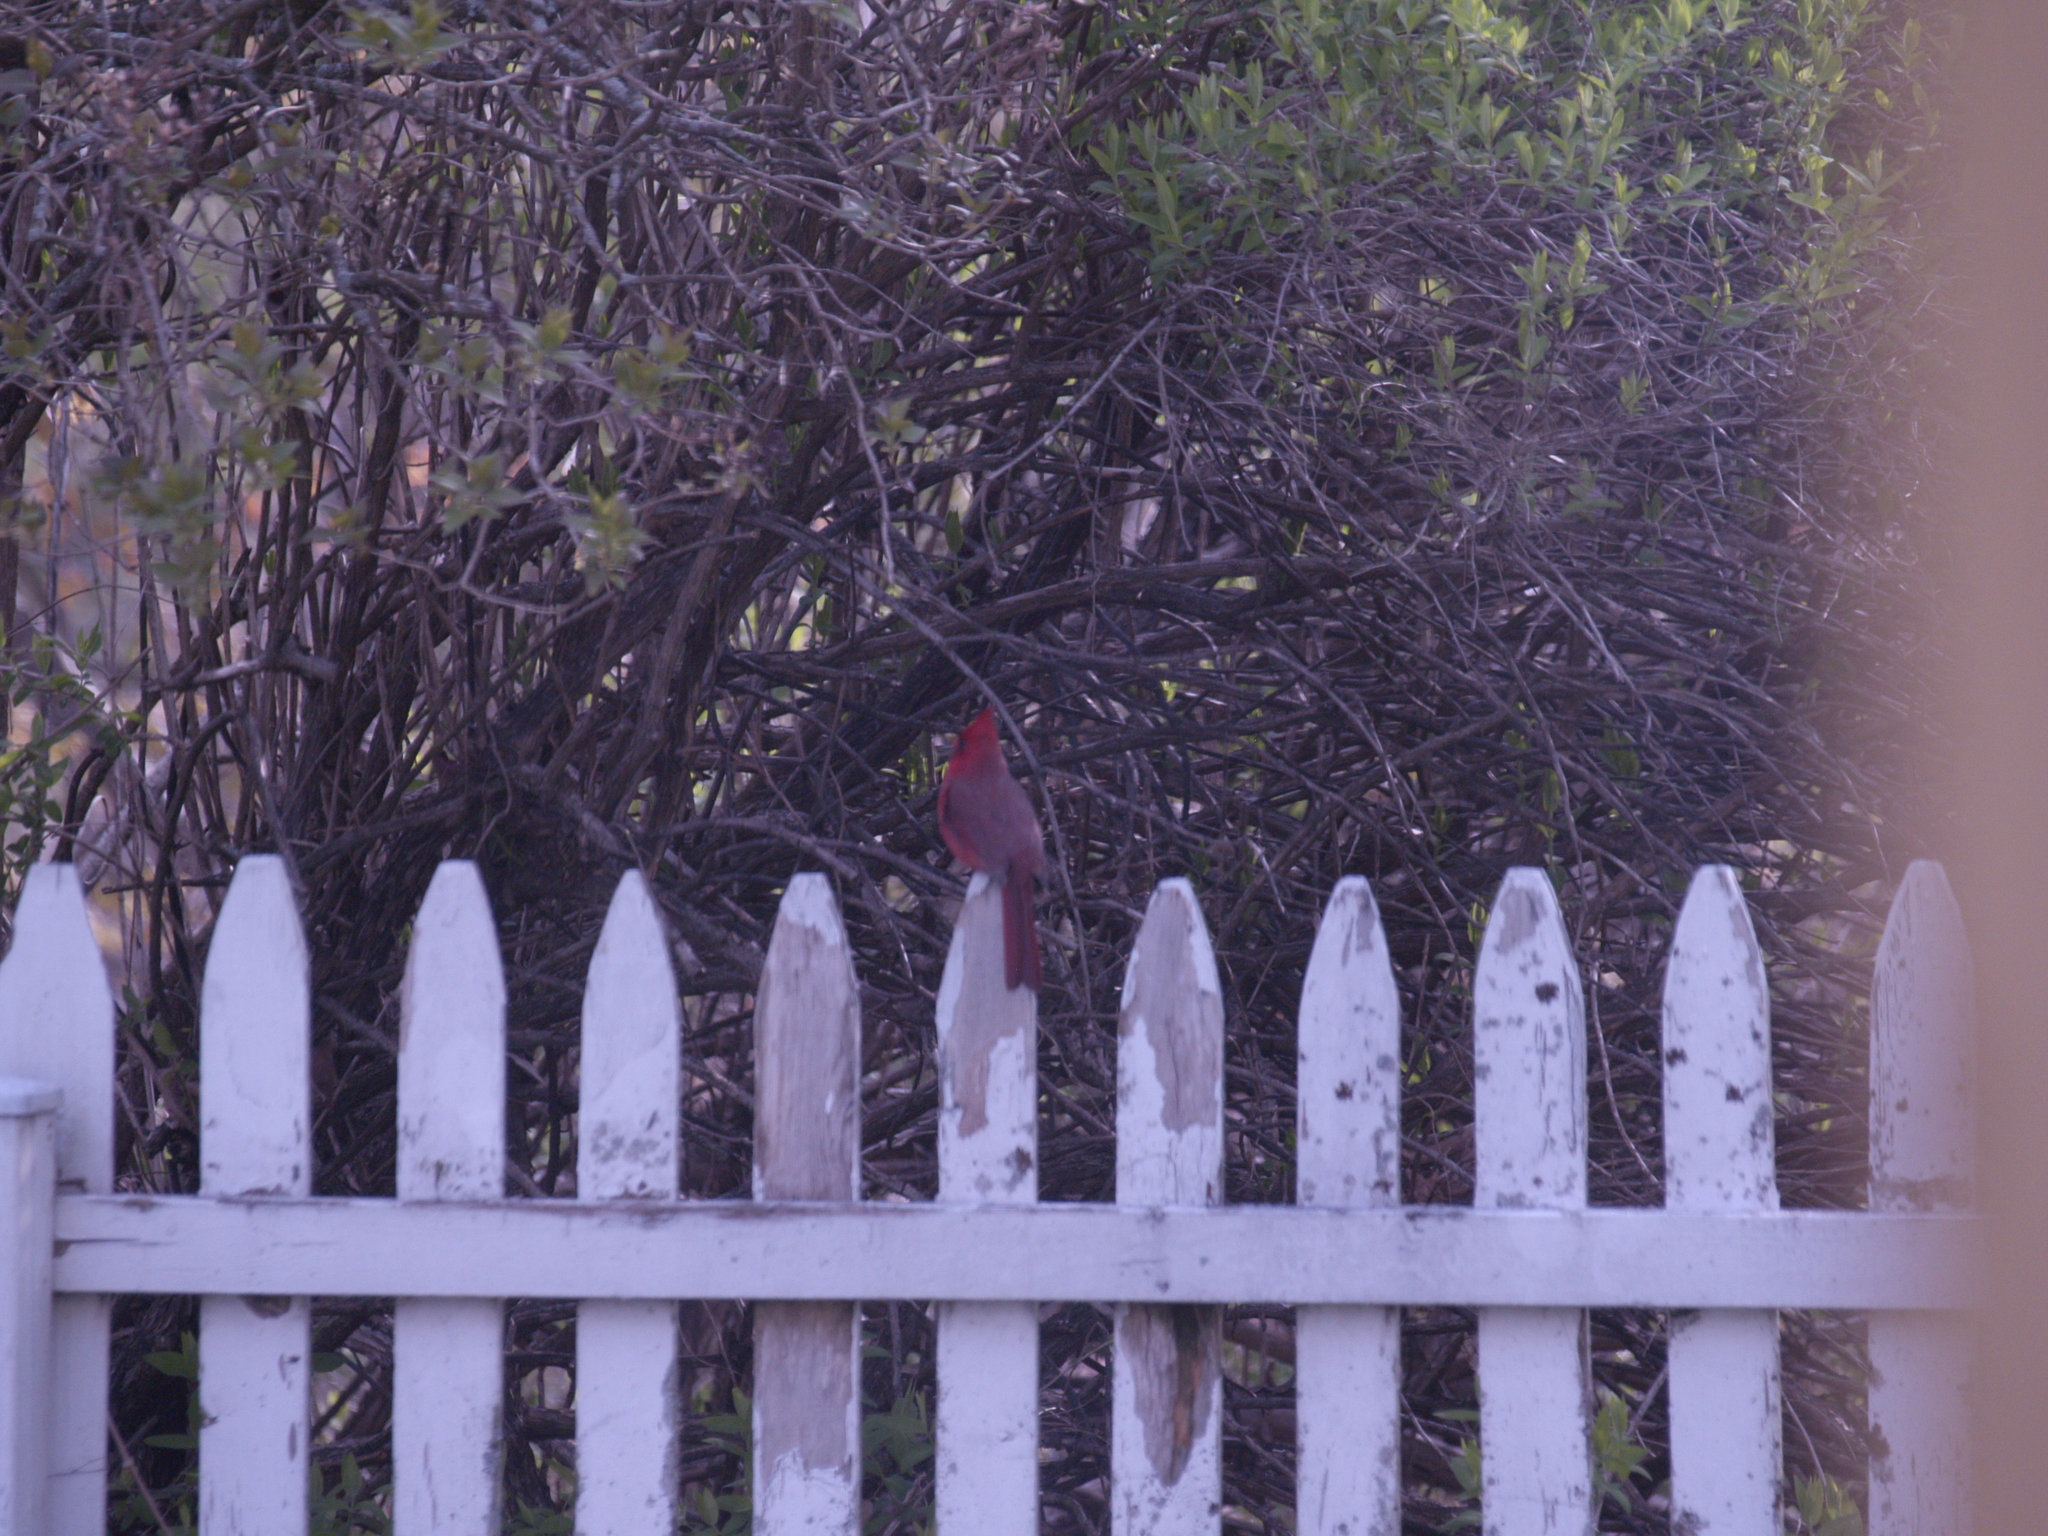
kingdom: Animalia
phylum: Chordata
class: Aves
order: Passeriformes
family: Cardinalidae
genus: Cardinalis
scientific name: Cardinalis cardinalis
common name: Northern cardinal
